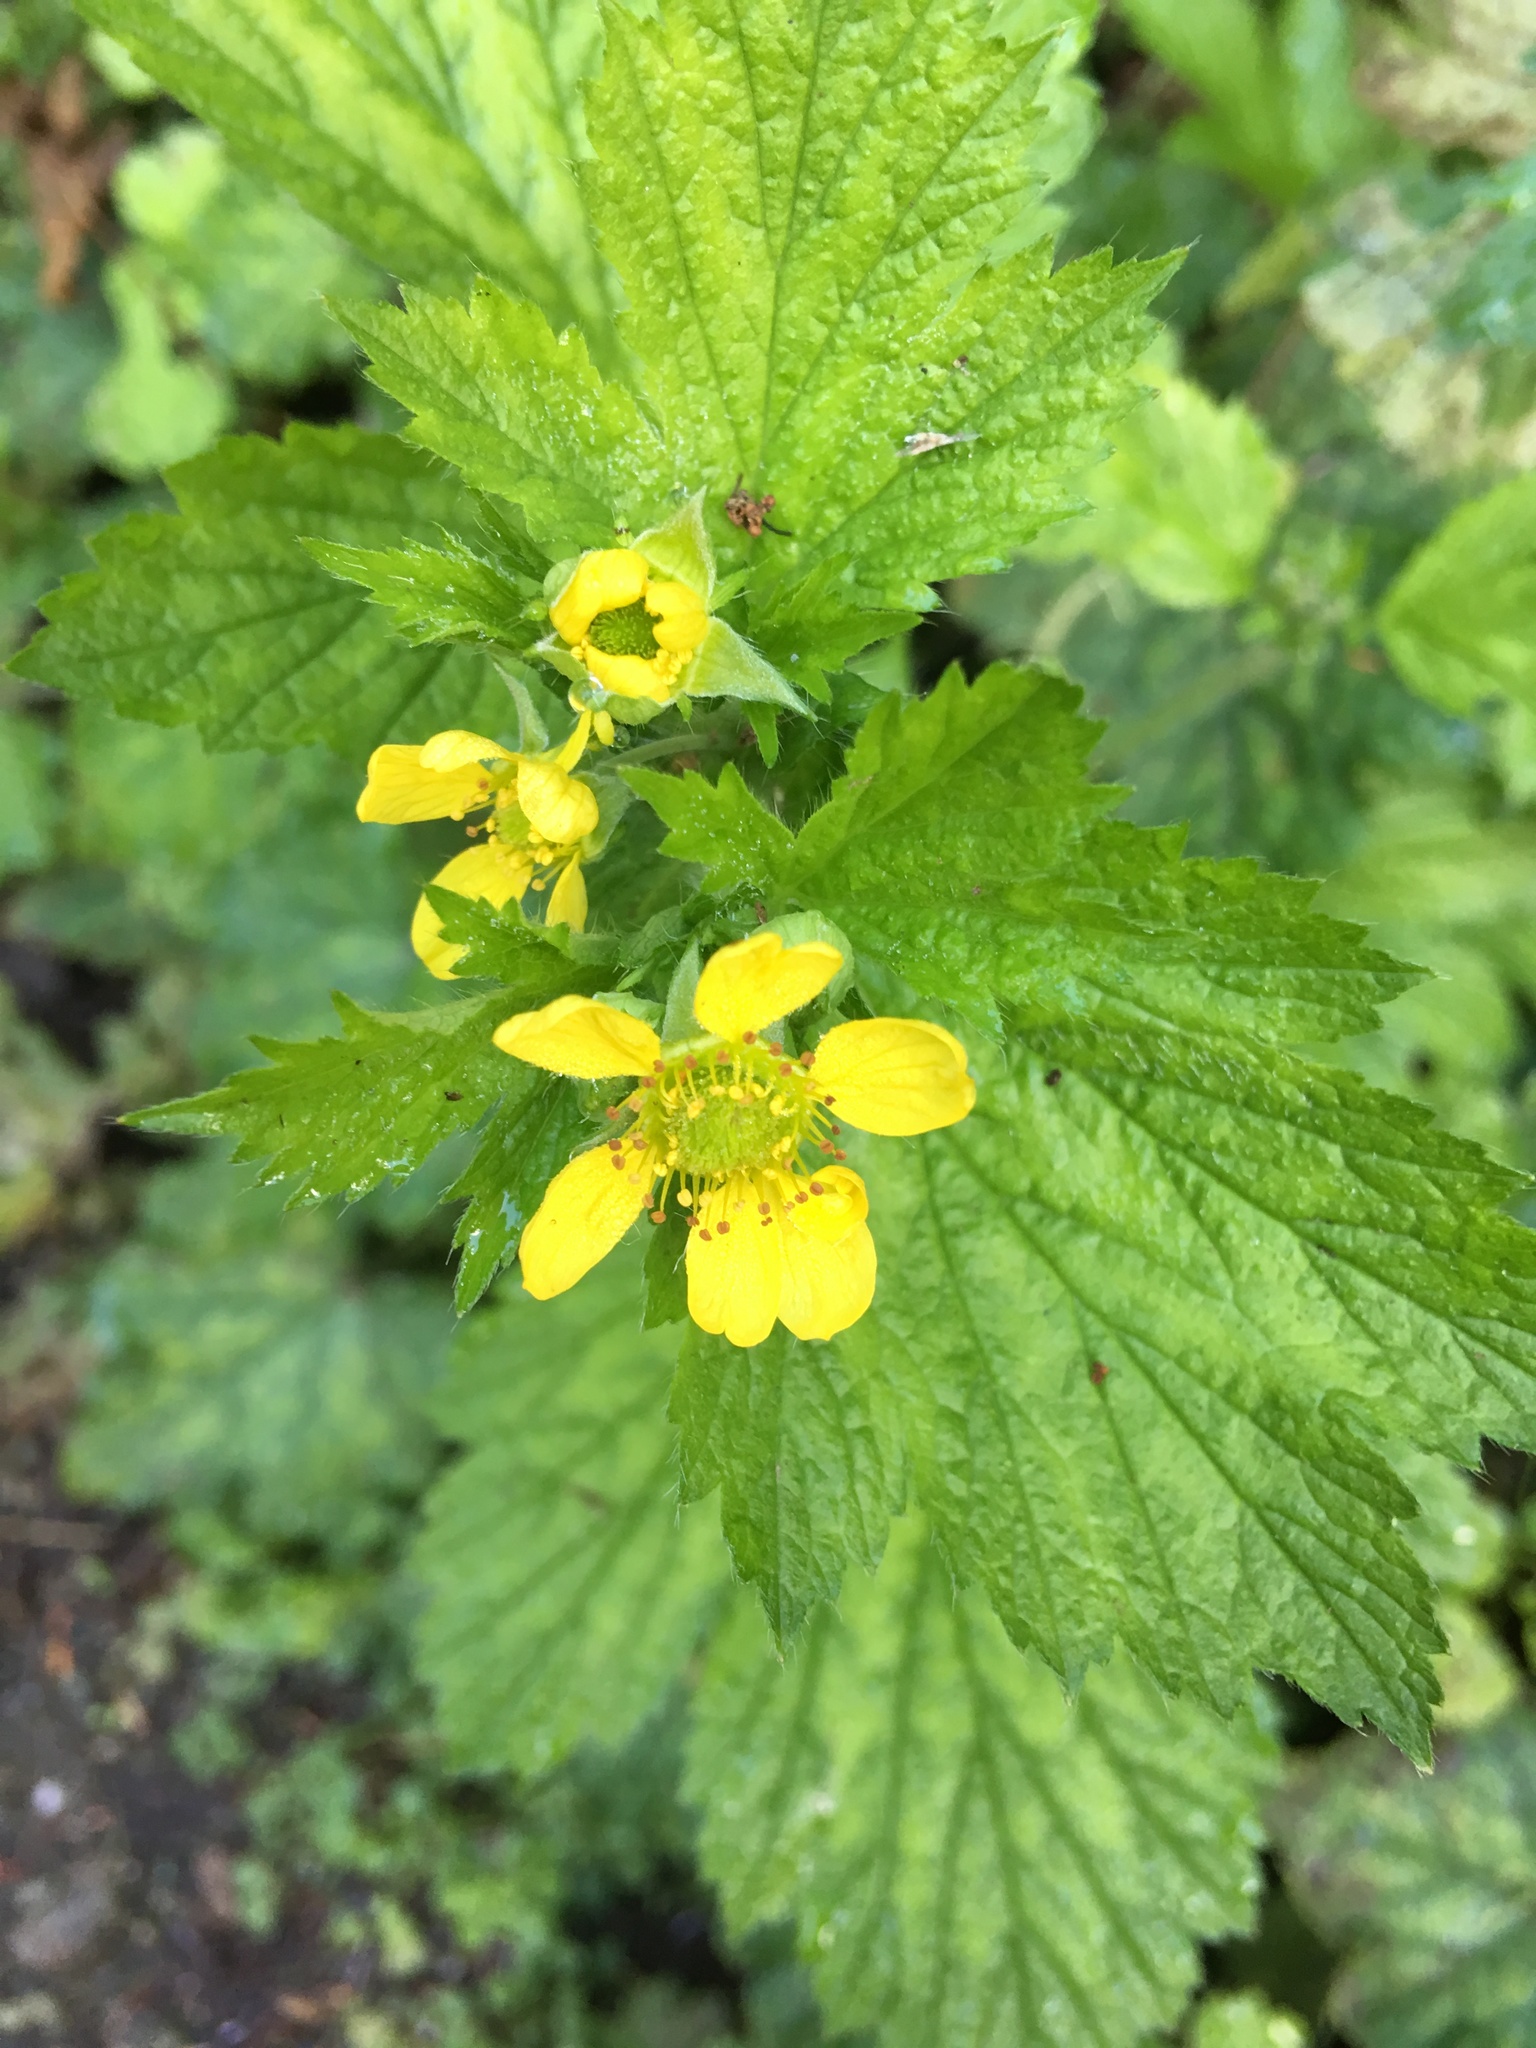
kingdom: Plantae
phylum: Tracheophyta
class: Magnoliopsida
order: Rosales
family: Rosaceae
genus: Geum
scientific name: Geum macrophyllum
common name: Large-leaved avens
